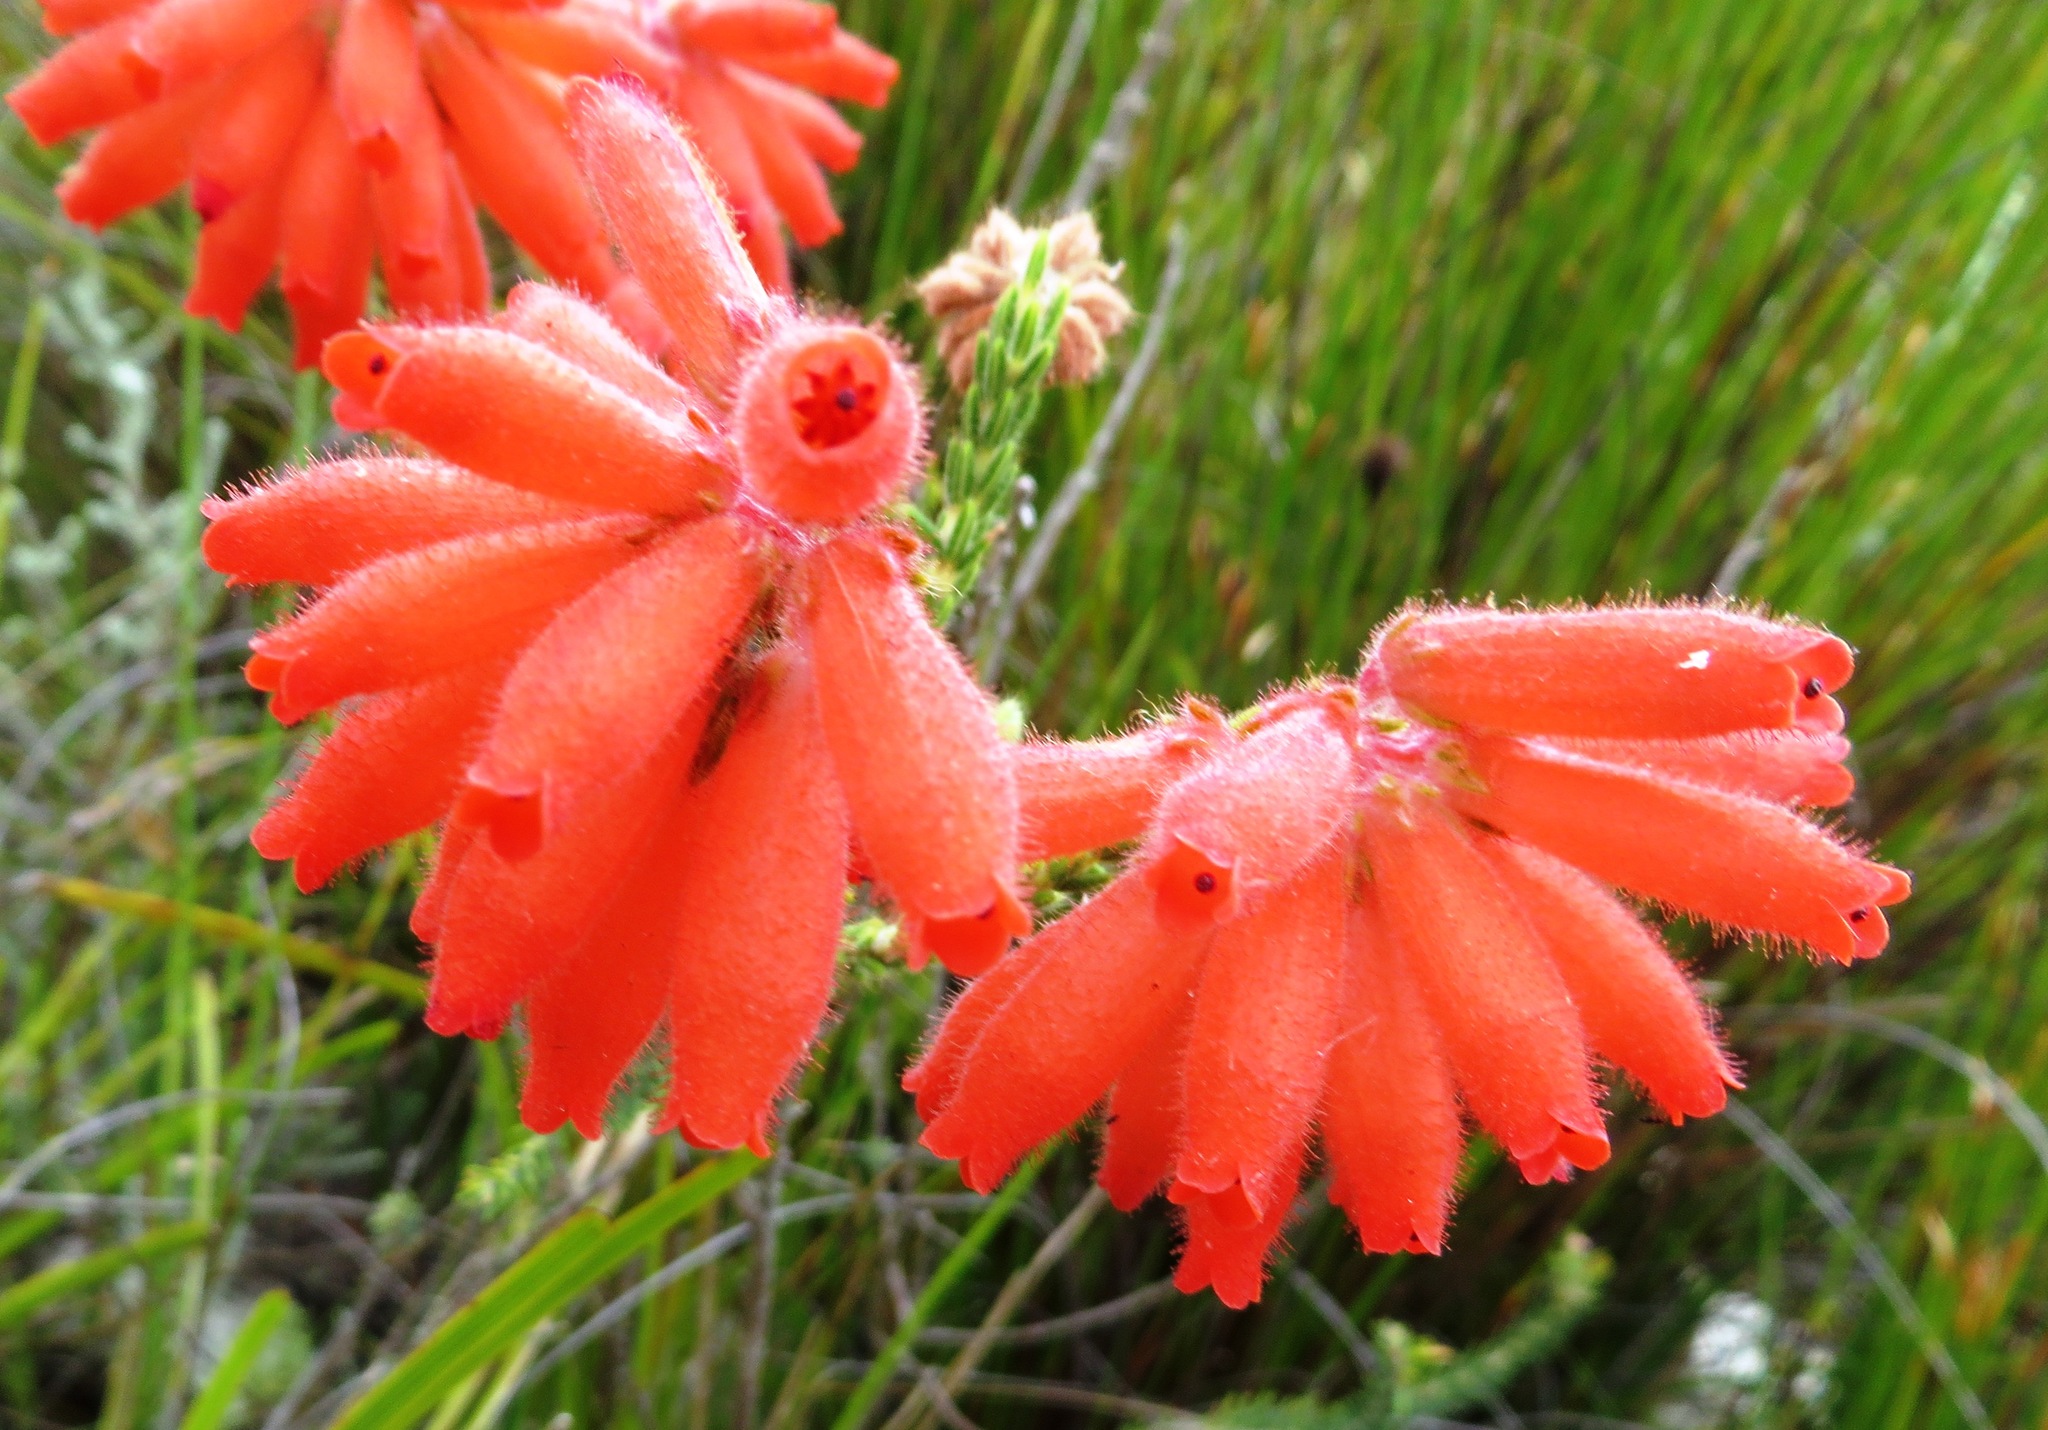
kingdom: Plantae
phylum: Tracheophyta
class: Magnoliopsida
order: Ericales
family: Ericaceae
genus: Erica
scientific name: Erica cerinthoides
